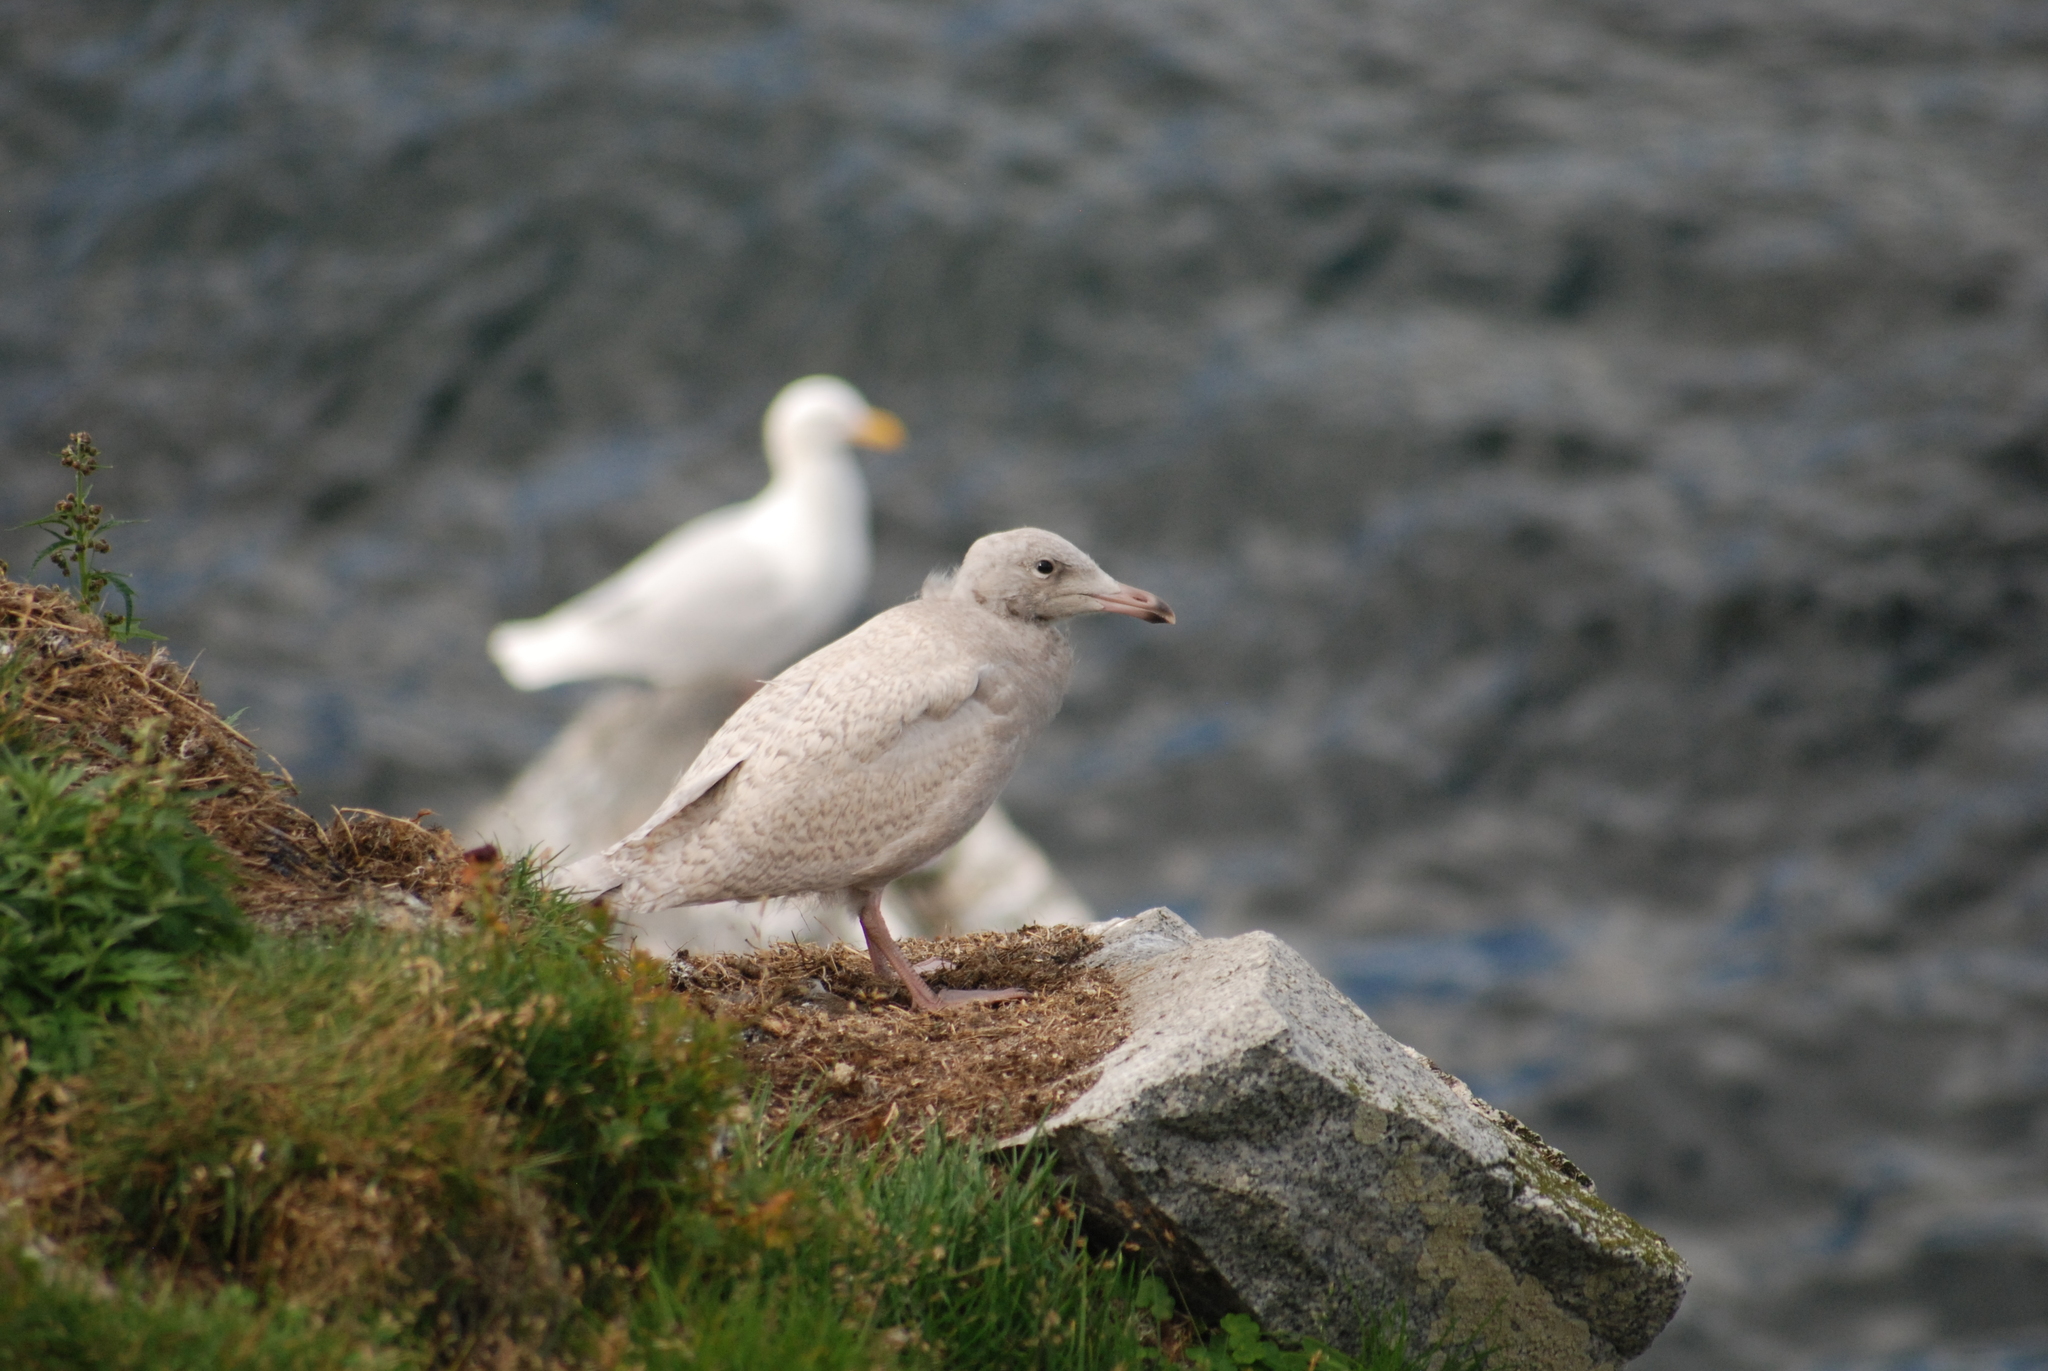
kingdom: Animalia
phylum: Chordata
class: Aves
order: Charadriiformes
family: Laridae
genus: Larus
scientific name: Larus hyperboreus
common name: Glaucous gull
